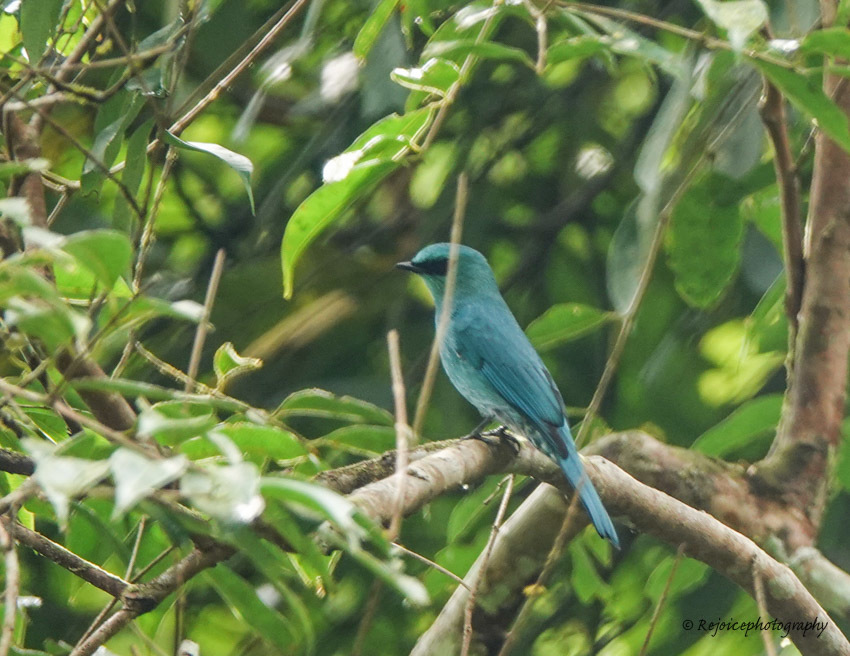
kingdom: Animalia
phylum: Chordata
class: Aves
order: Passeriformes
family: Muscicapidae
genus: Eumyias
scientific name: Eumyias thalassinus
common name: Verditer flycatcher
